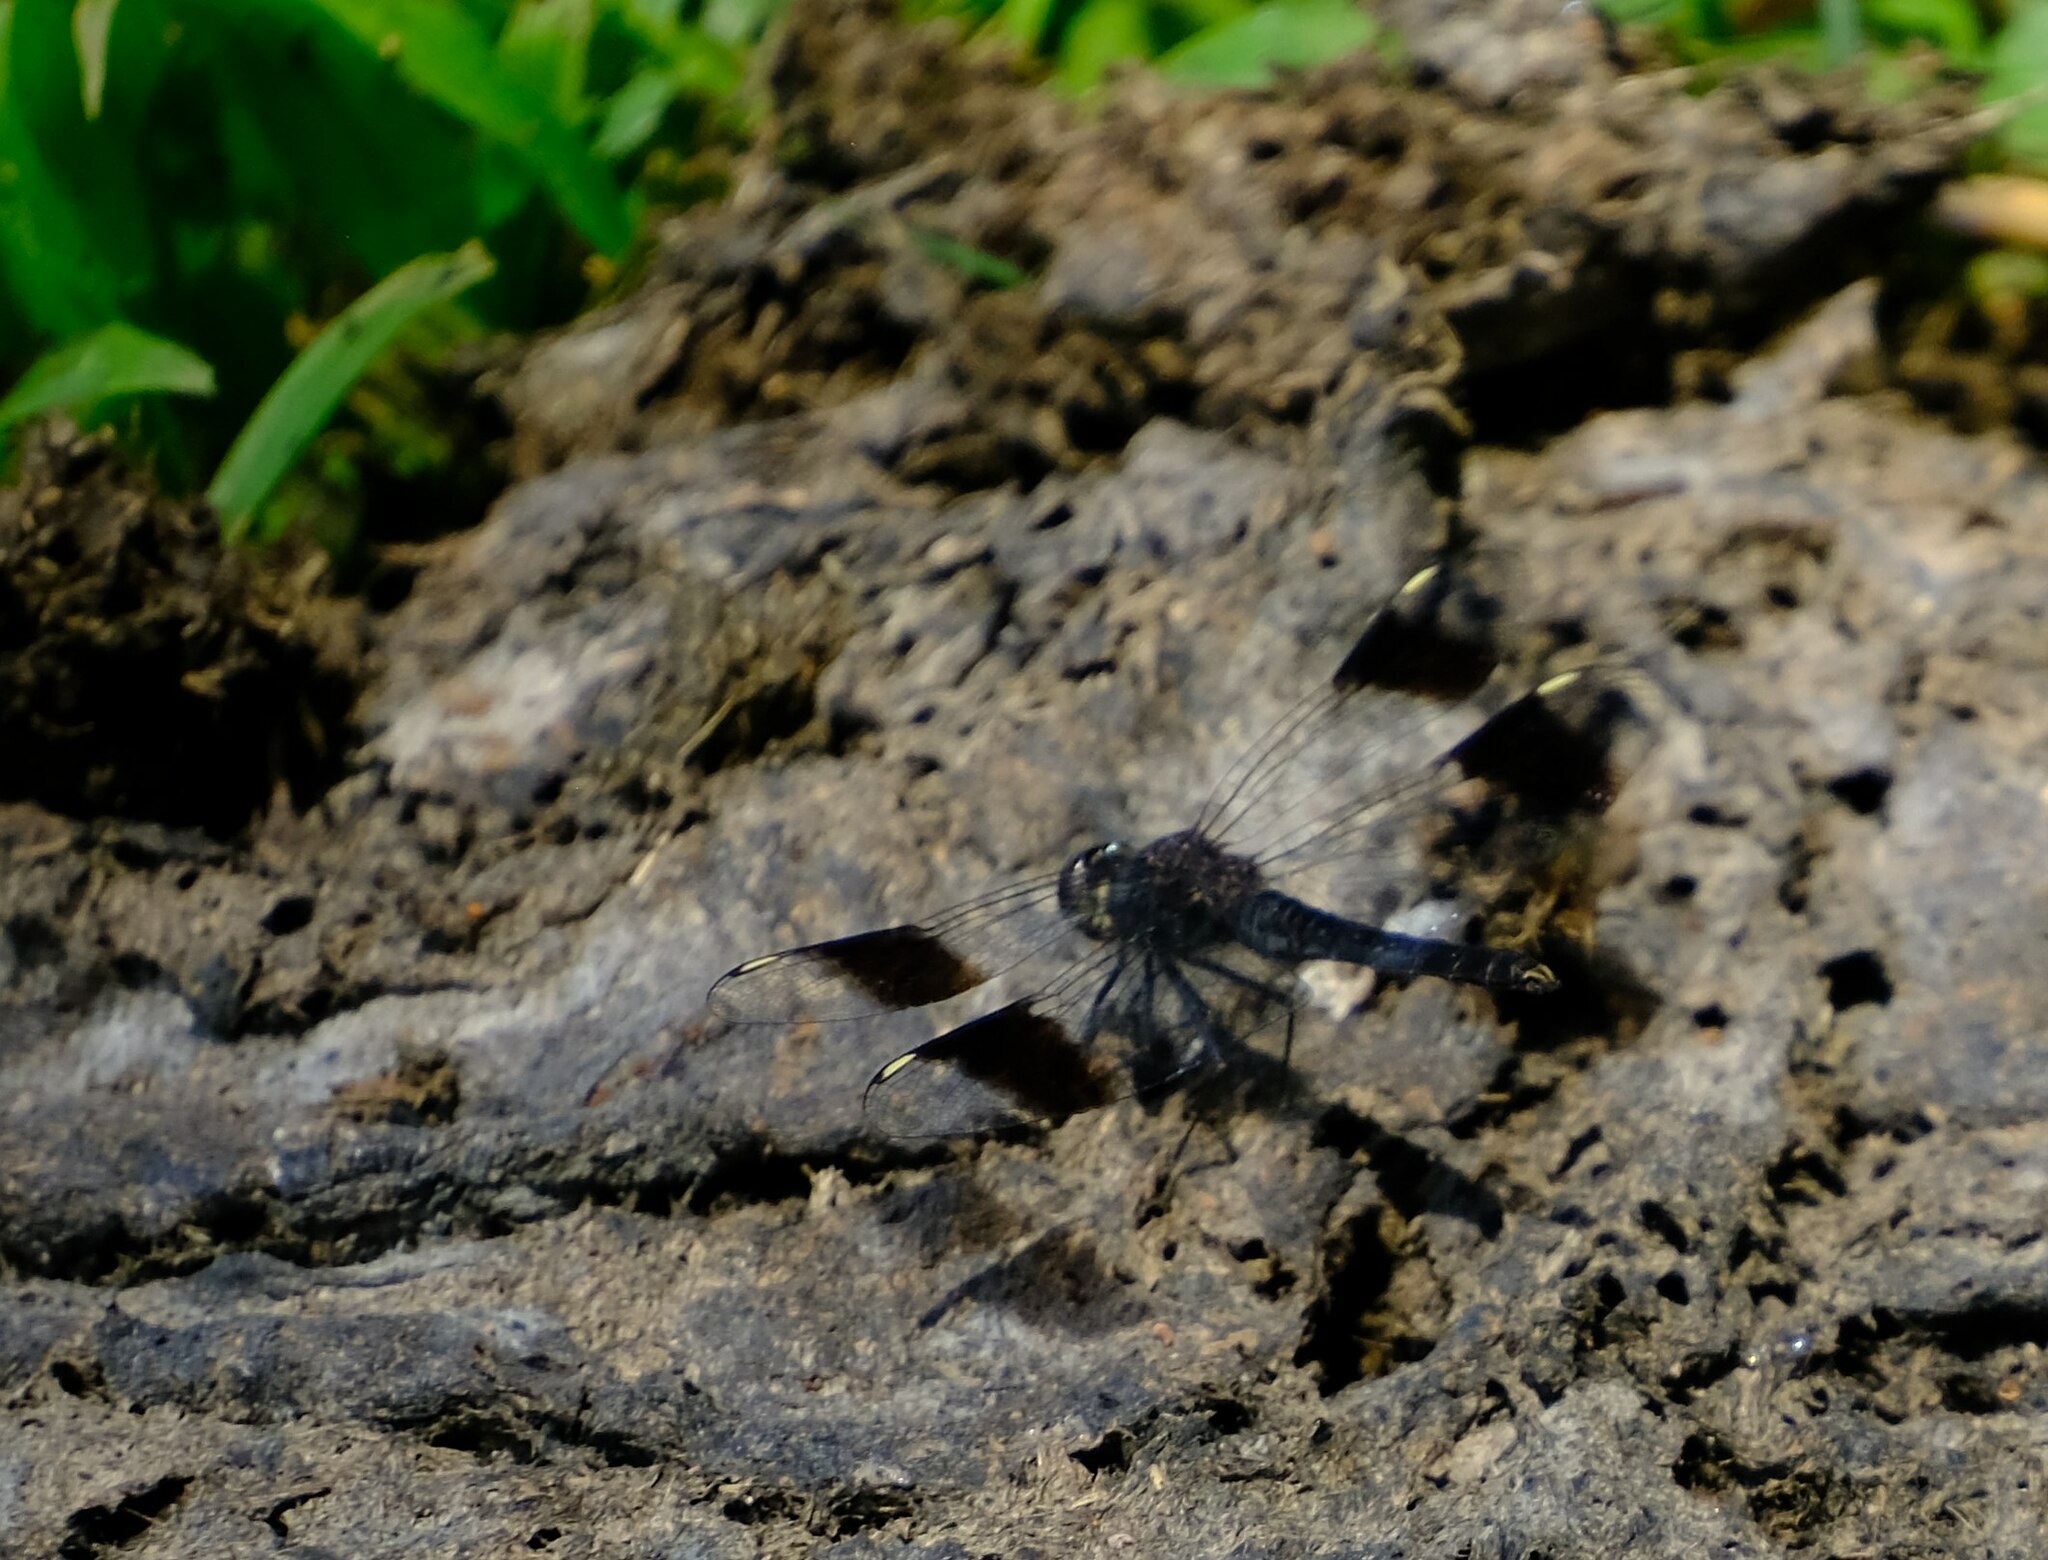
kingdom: Animalia
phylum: Arthropoda
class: Insecta
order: Odonata
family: Libellulidae
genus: Brachythemis
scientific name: Brachythemis leucosticta
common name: Banded groundling
